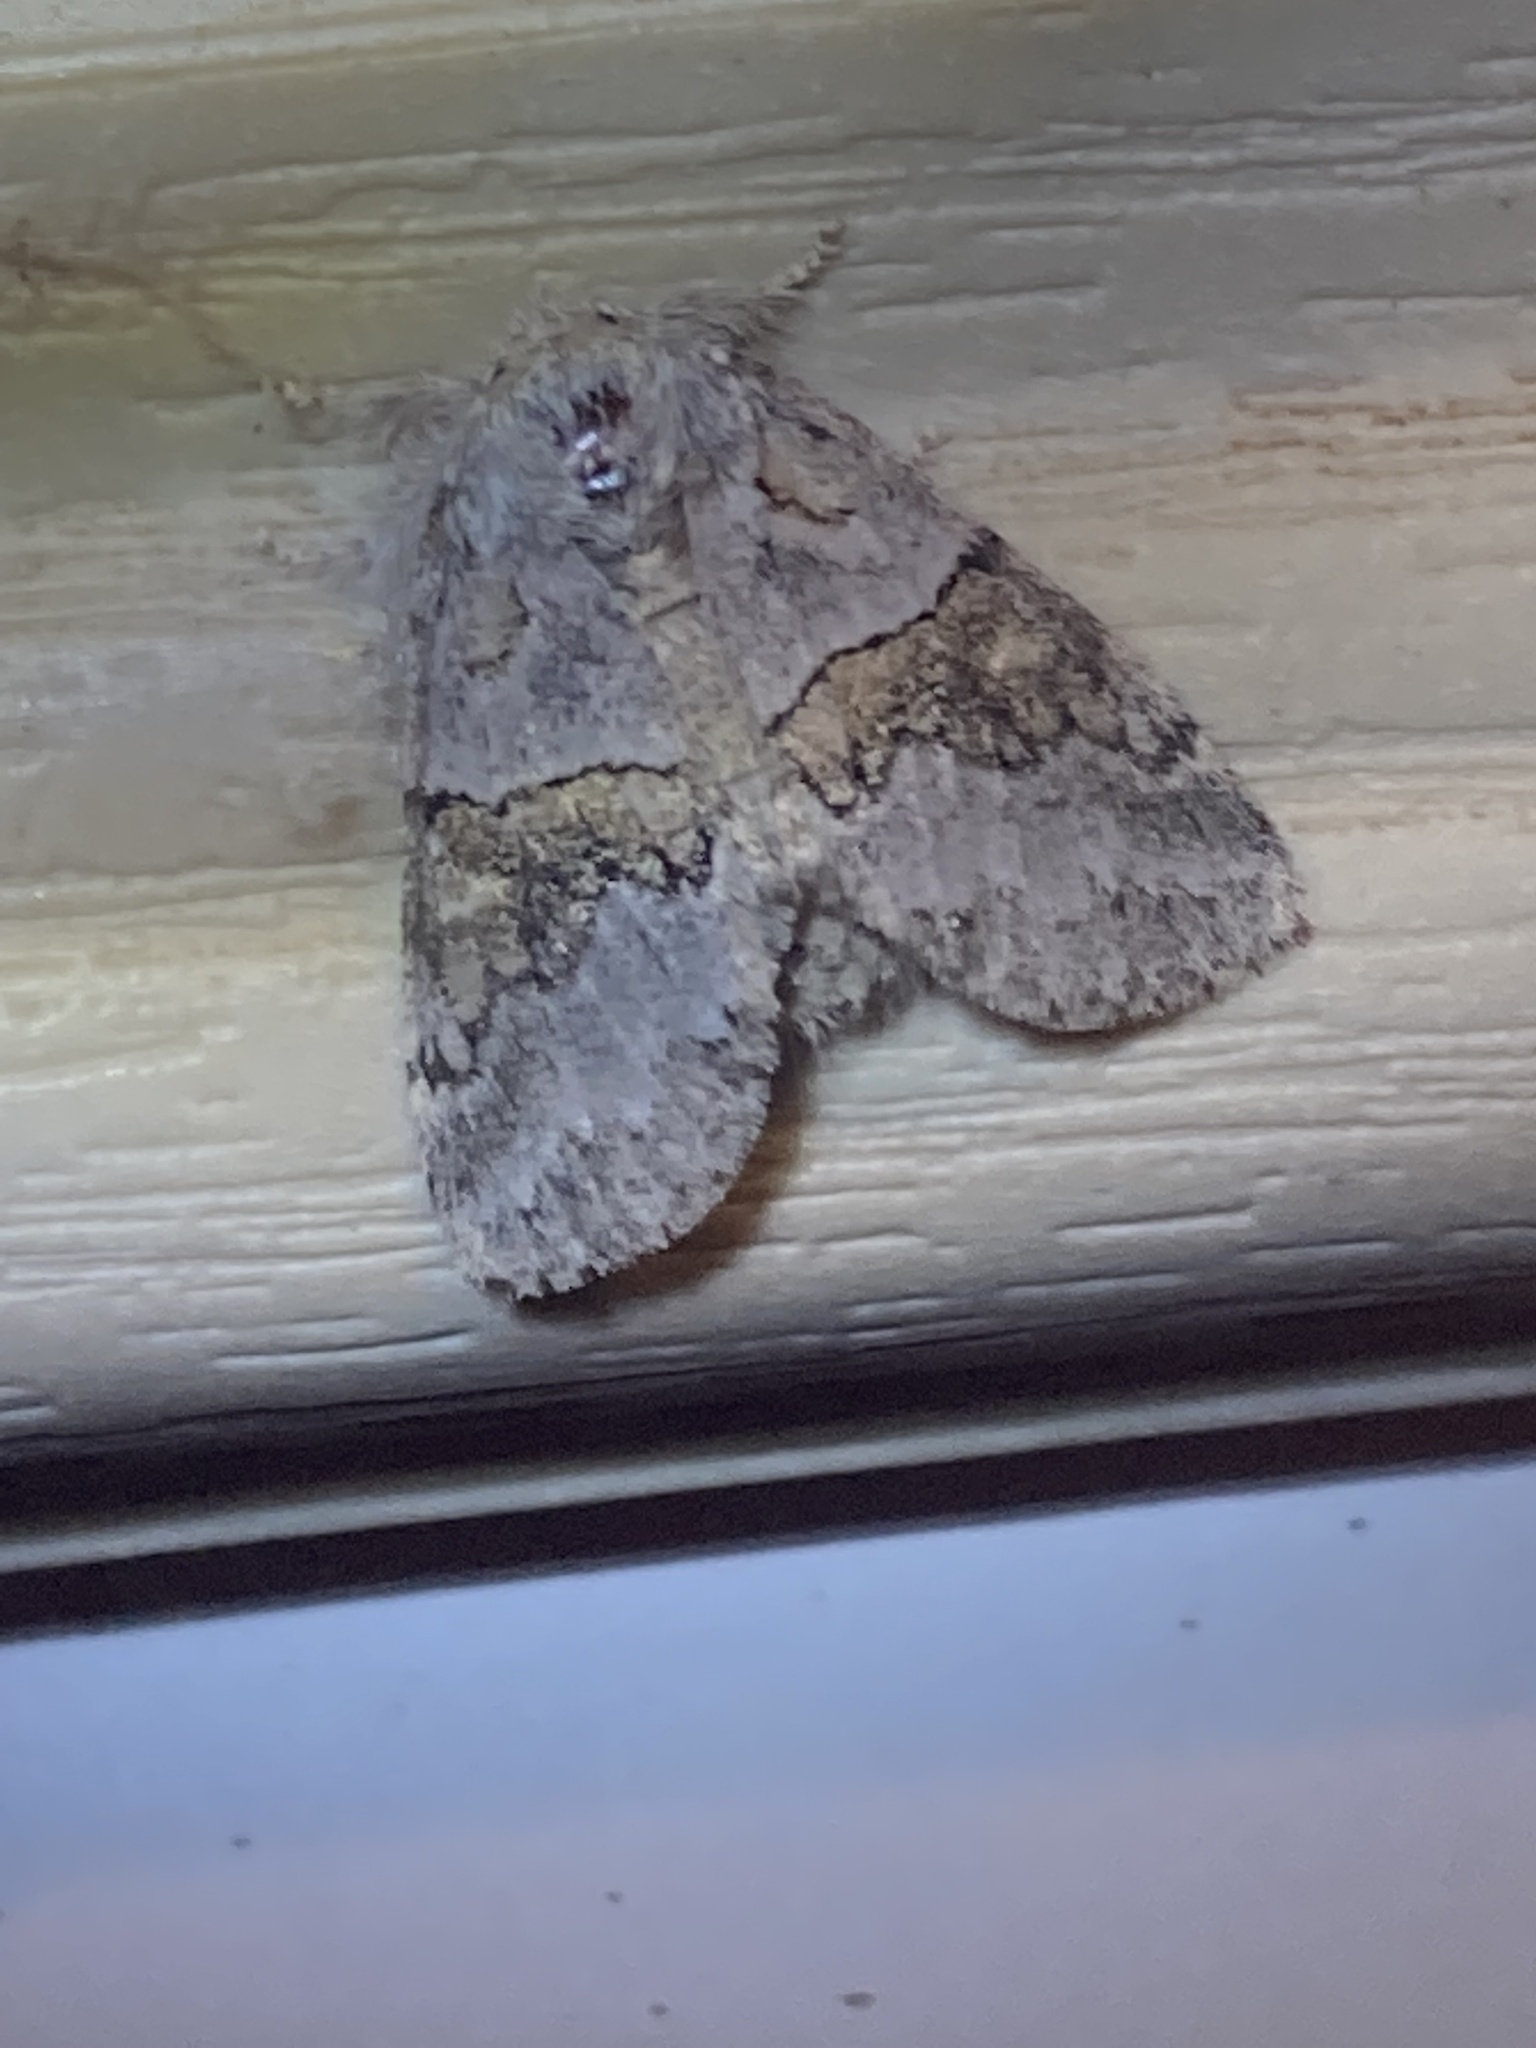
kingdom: Animalia
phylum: Arthropoda
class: Insecta
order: Lepidoptera
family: Notodontidae
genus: Gluphisia
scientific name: Gluphisia septentrionis
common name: Common gluphisia
